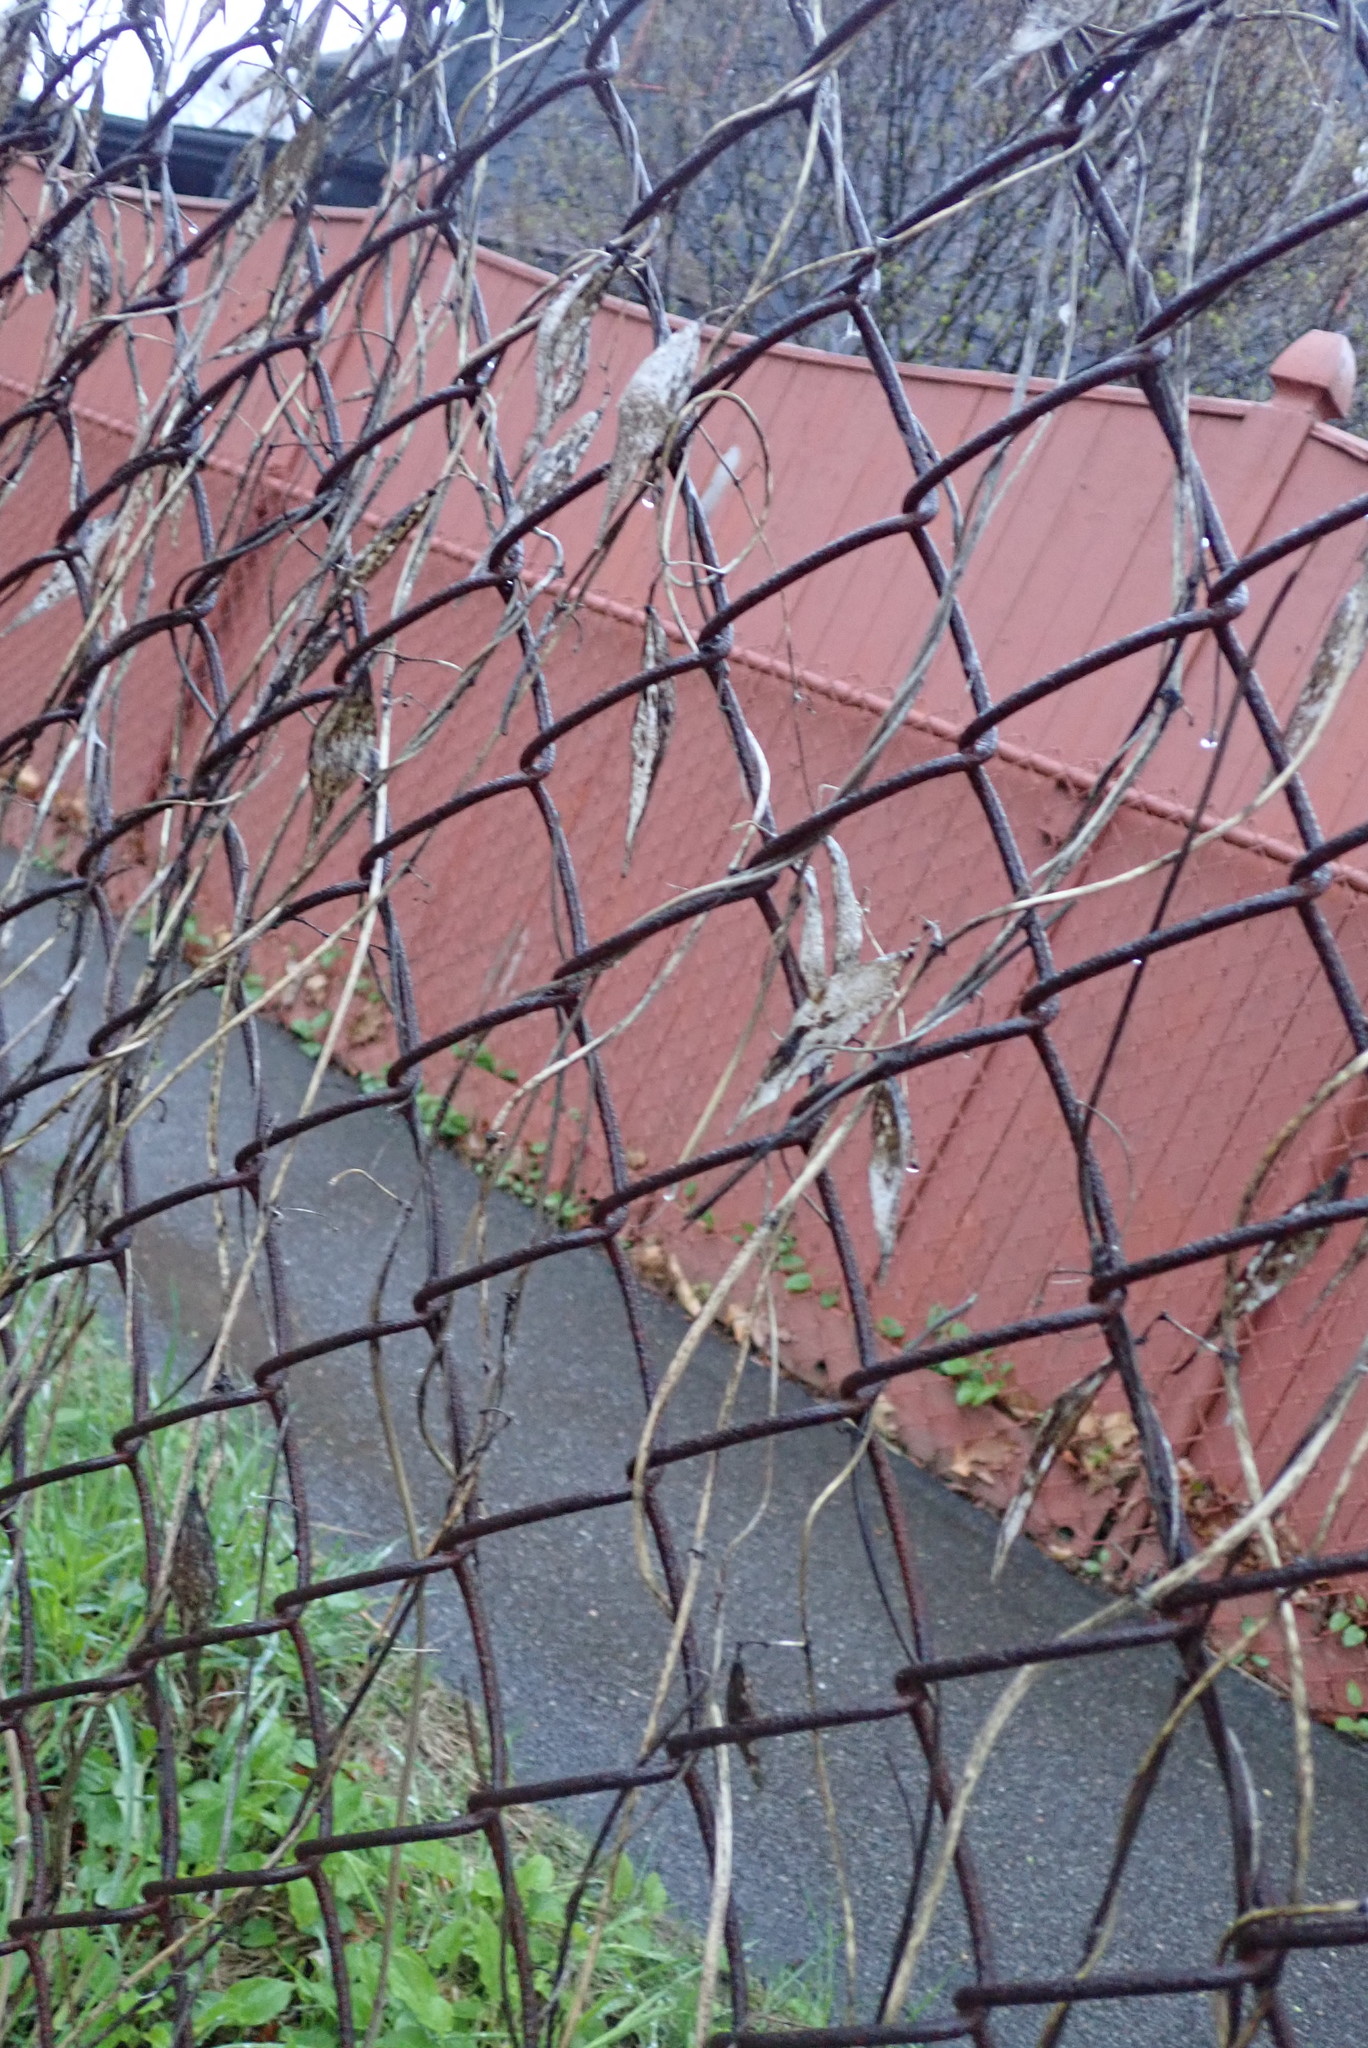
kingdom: Plantae
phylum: Tracheophyta
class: Magnoliopsida
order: Gentianales
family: Apocynaceae
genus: Vincetoxicum
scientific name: Vincetoxicum
